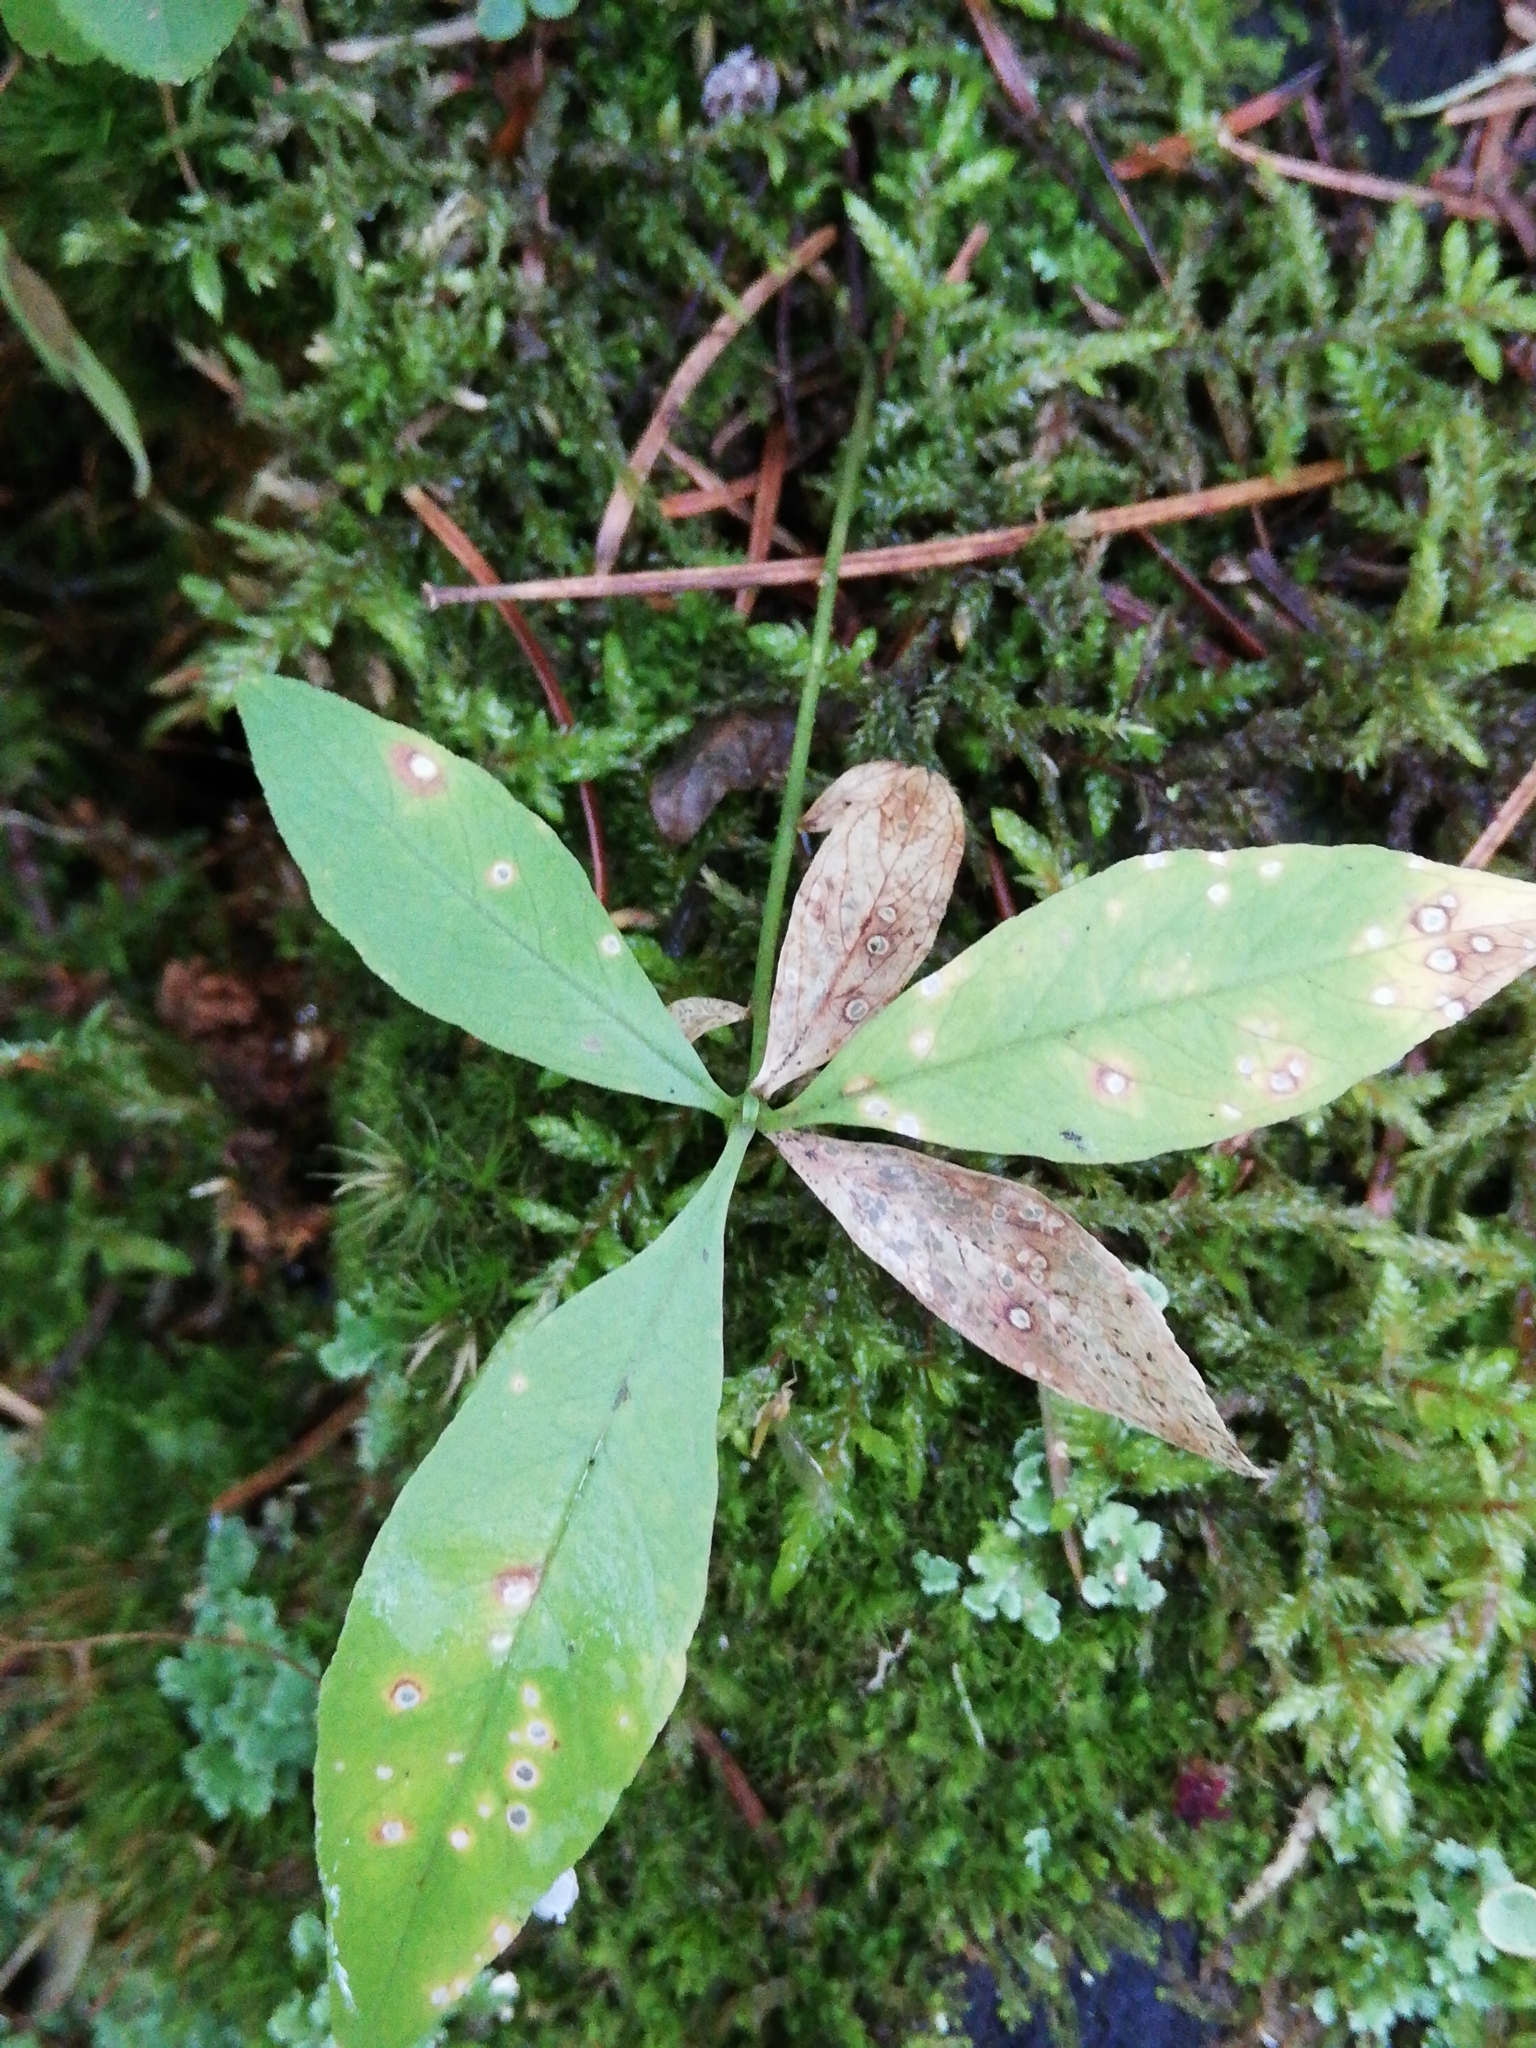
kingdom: Plantae
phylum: Tracheophyta
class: Magnoliopsida
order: Ericales
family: Primulaceae
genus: Lysimachia
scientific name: Lysimachia europaea
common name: Arctic starflower
